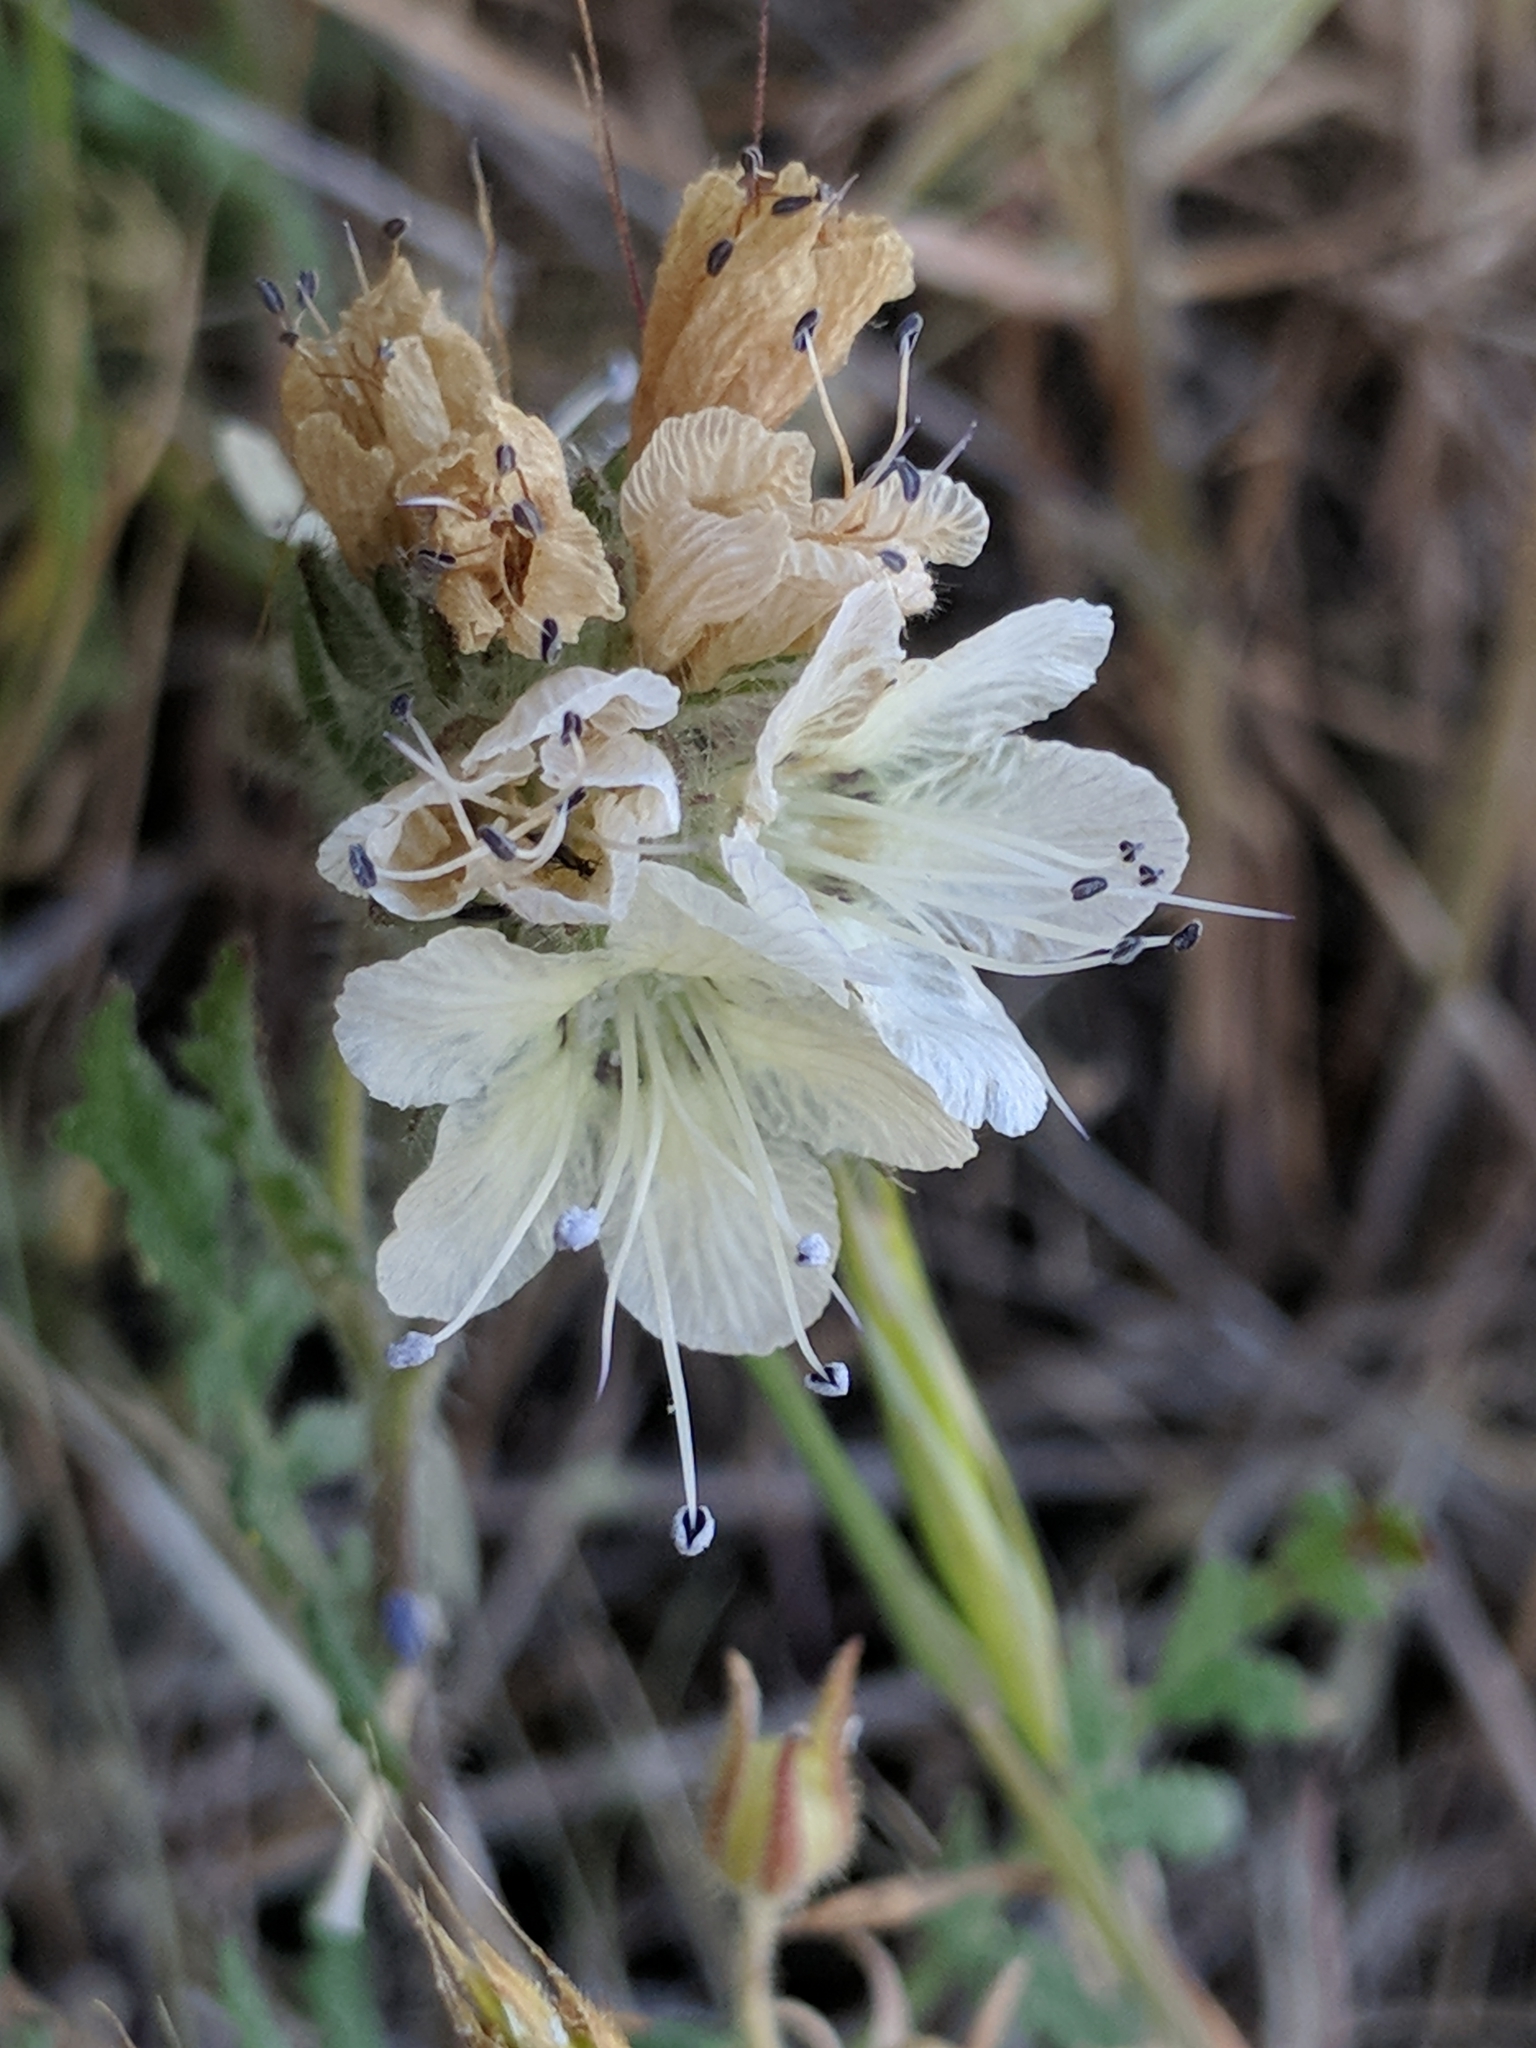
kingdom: Plantae
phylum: Tracheophyta
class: Magnoliopsida
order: Boraginales
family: Hydrophyllaceae
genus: Phacelia
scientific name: Phacelia distans
